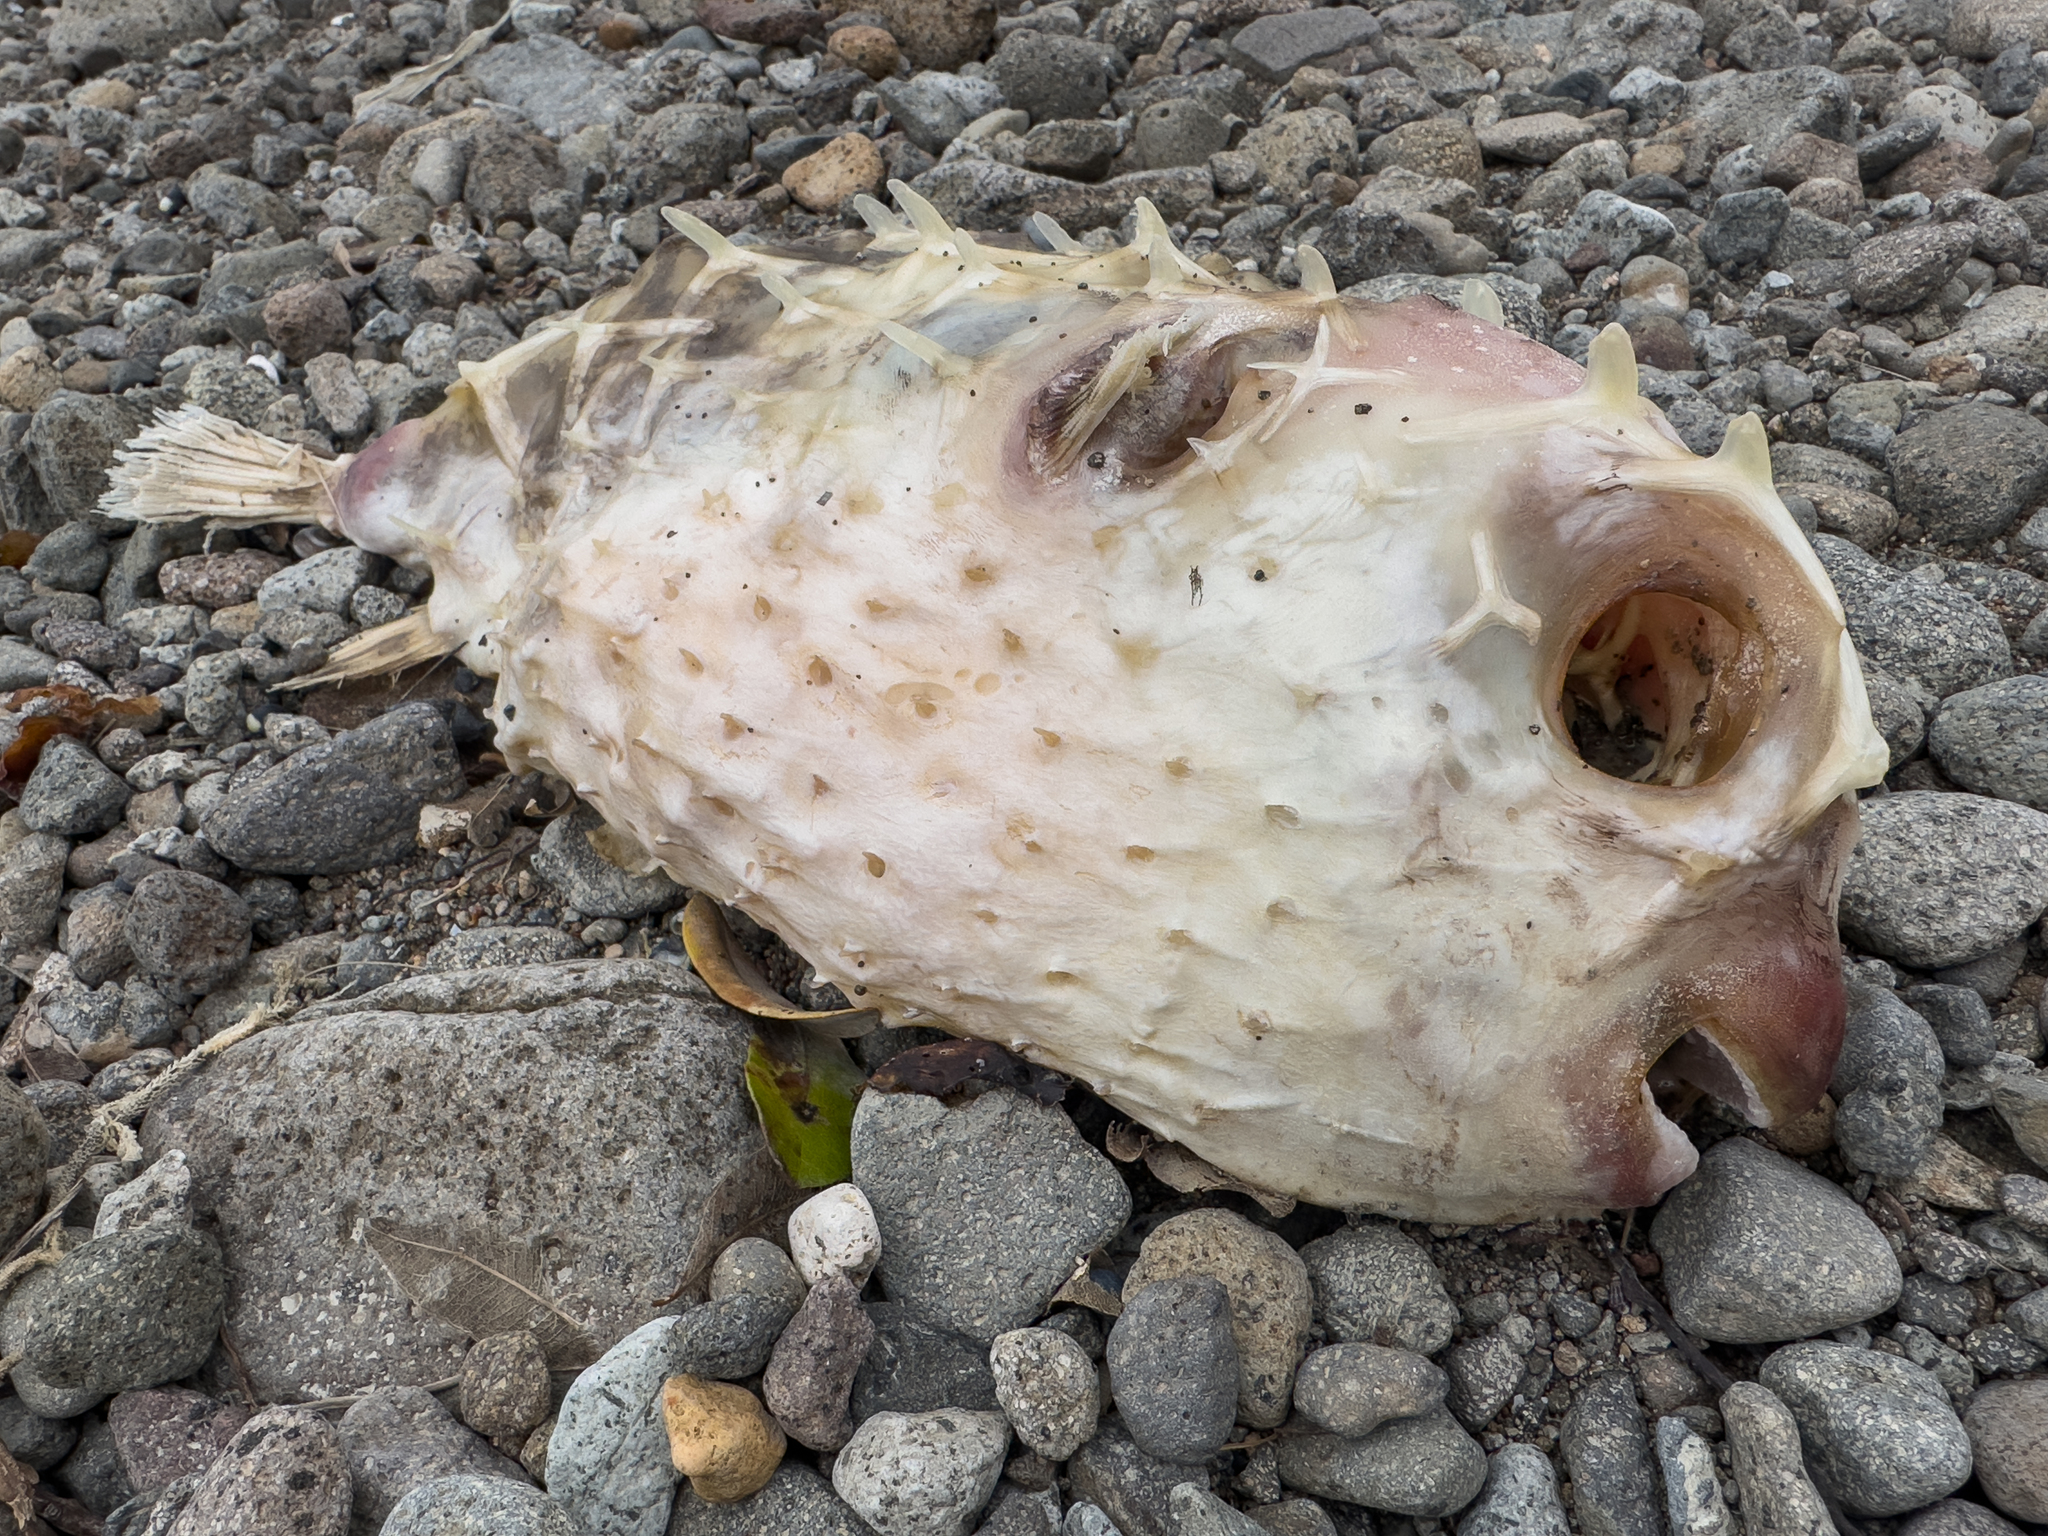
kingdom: Animalia
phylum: Chordata
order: Tetraodontiformes
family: Diodontidae
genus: Allomycterus
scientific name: Allomycterus pilatus
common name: No common name
